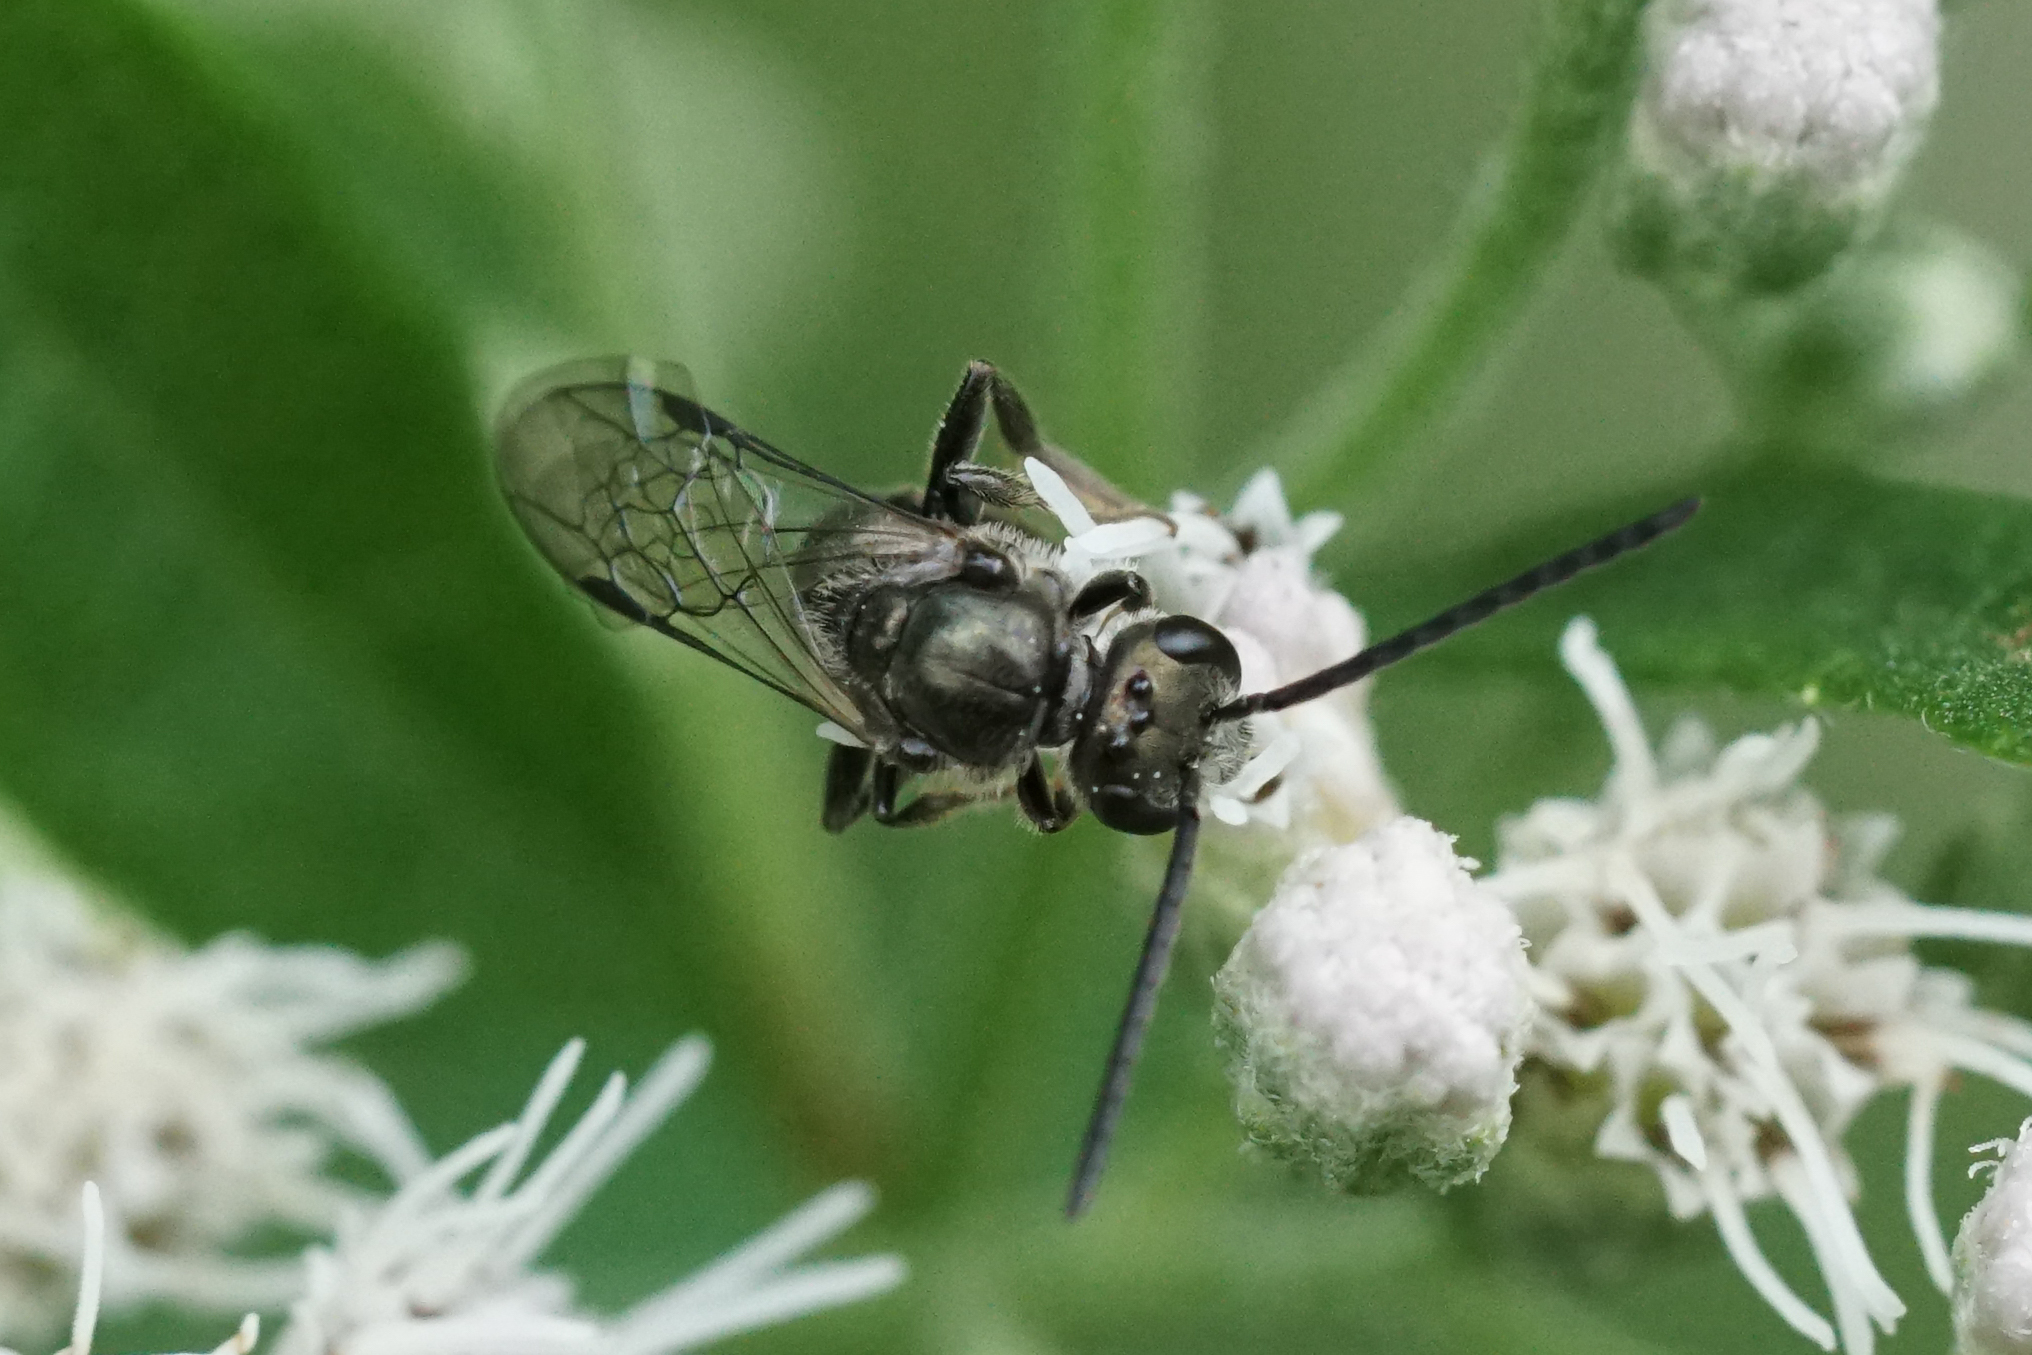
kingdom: Animalia
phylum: Arthropoda
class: Insecta
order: Hymenoptera
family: Halictidae
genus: Dialictus
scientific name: Dialictus
